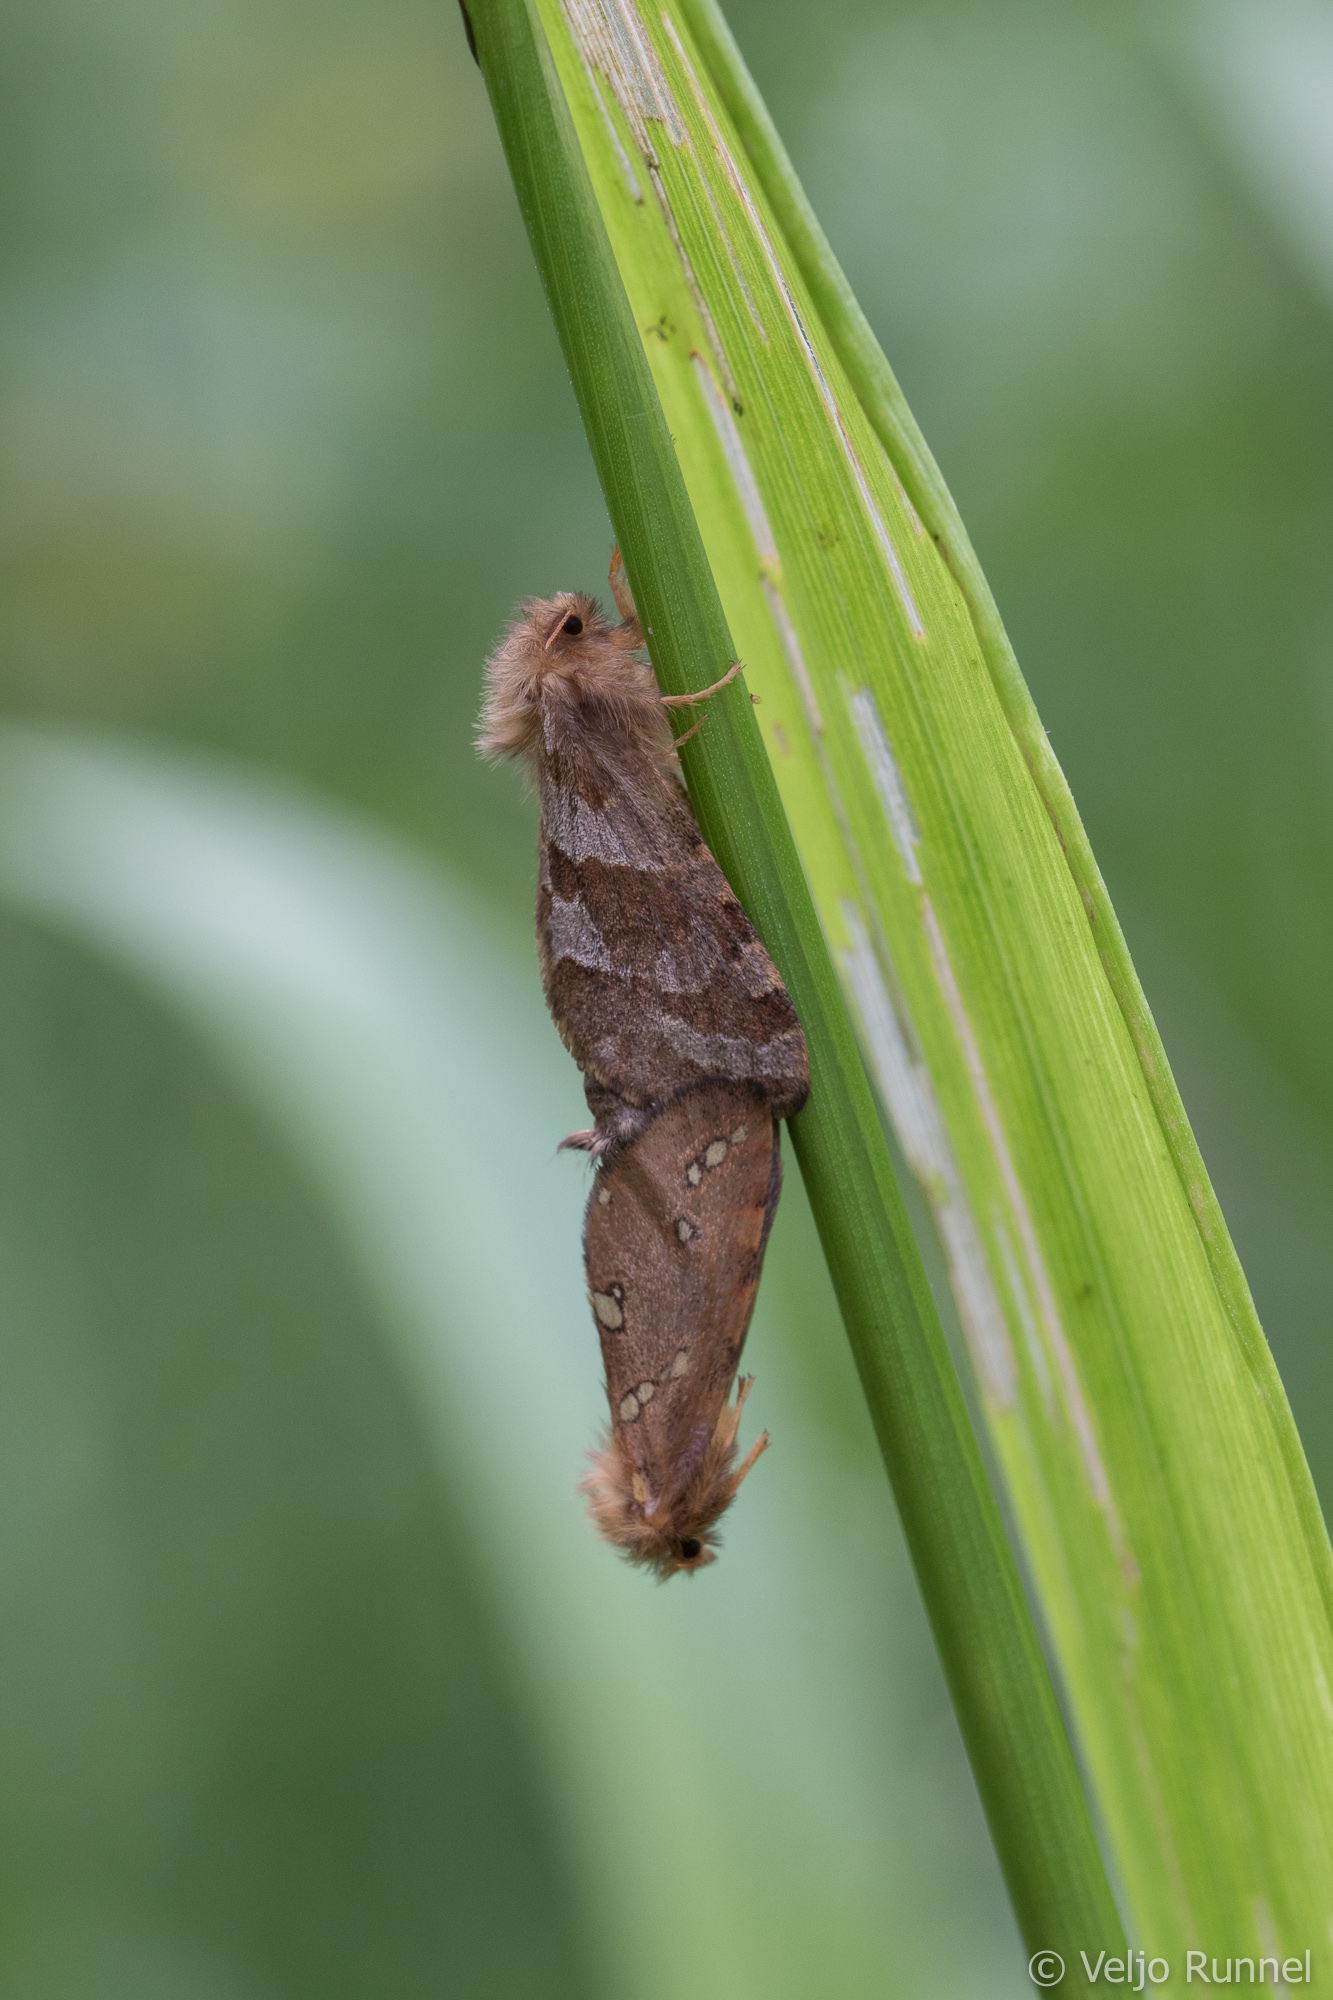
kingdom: Animalia
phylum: Arthropoda
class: Insecta
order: Lepidoptera
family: Hepialidae
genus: Phymatopus
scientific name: Phymatopus hecta
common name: Gold swift
